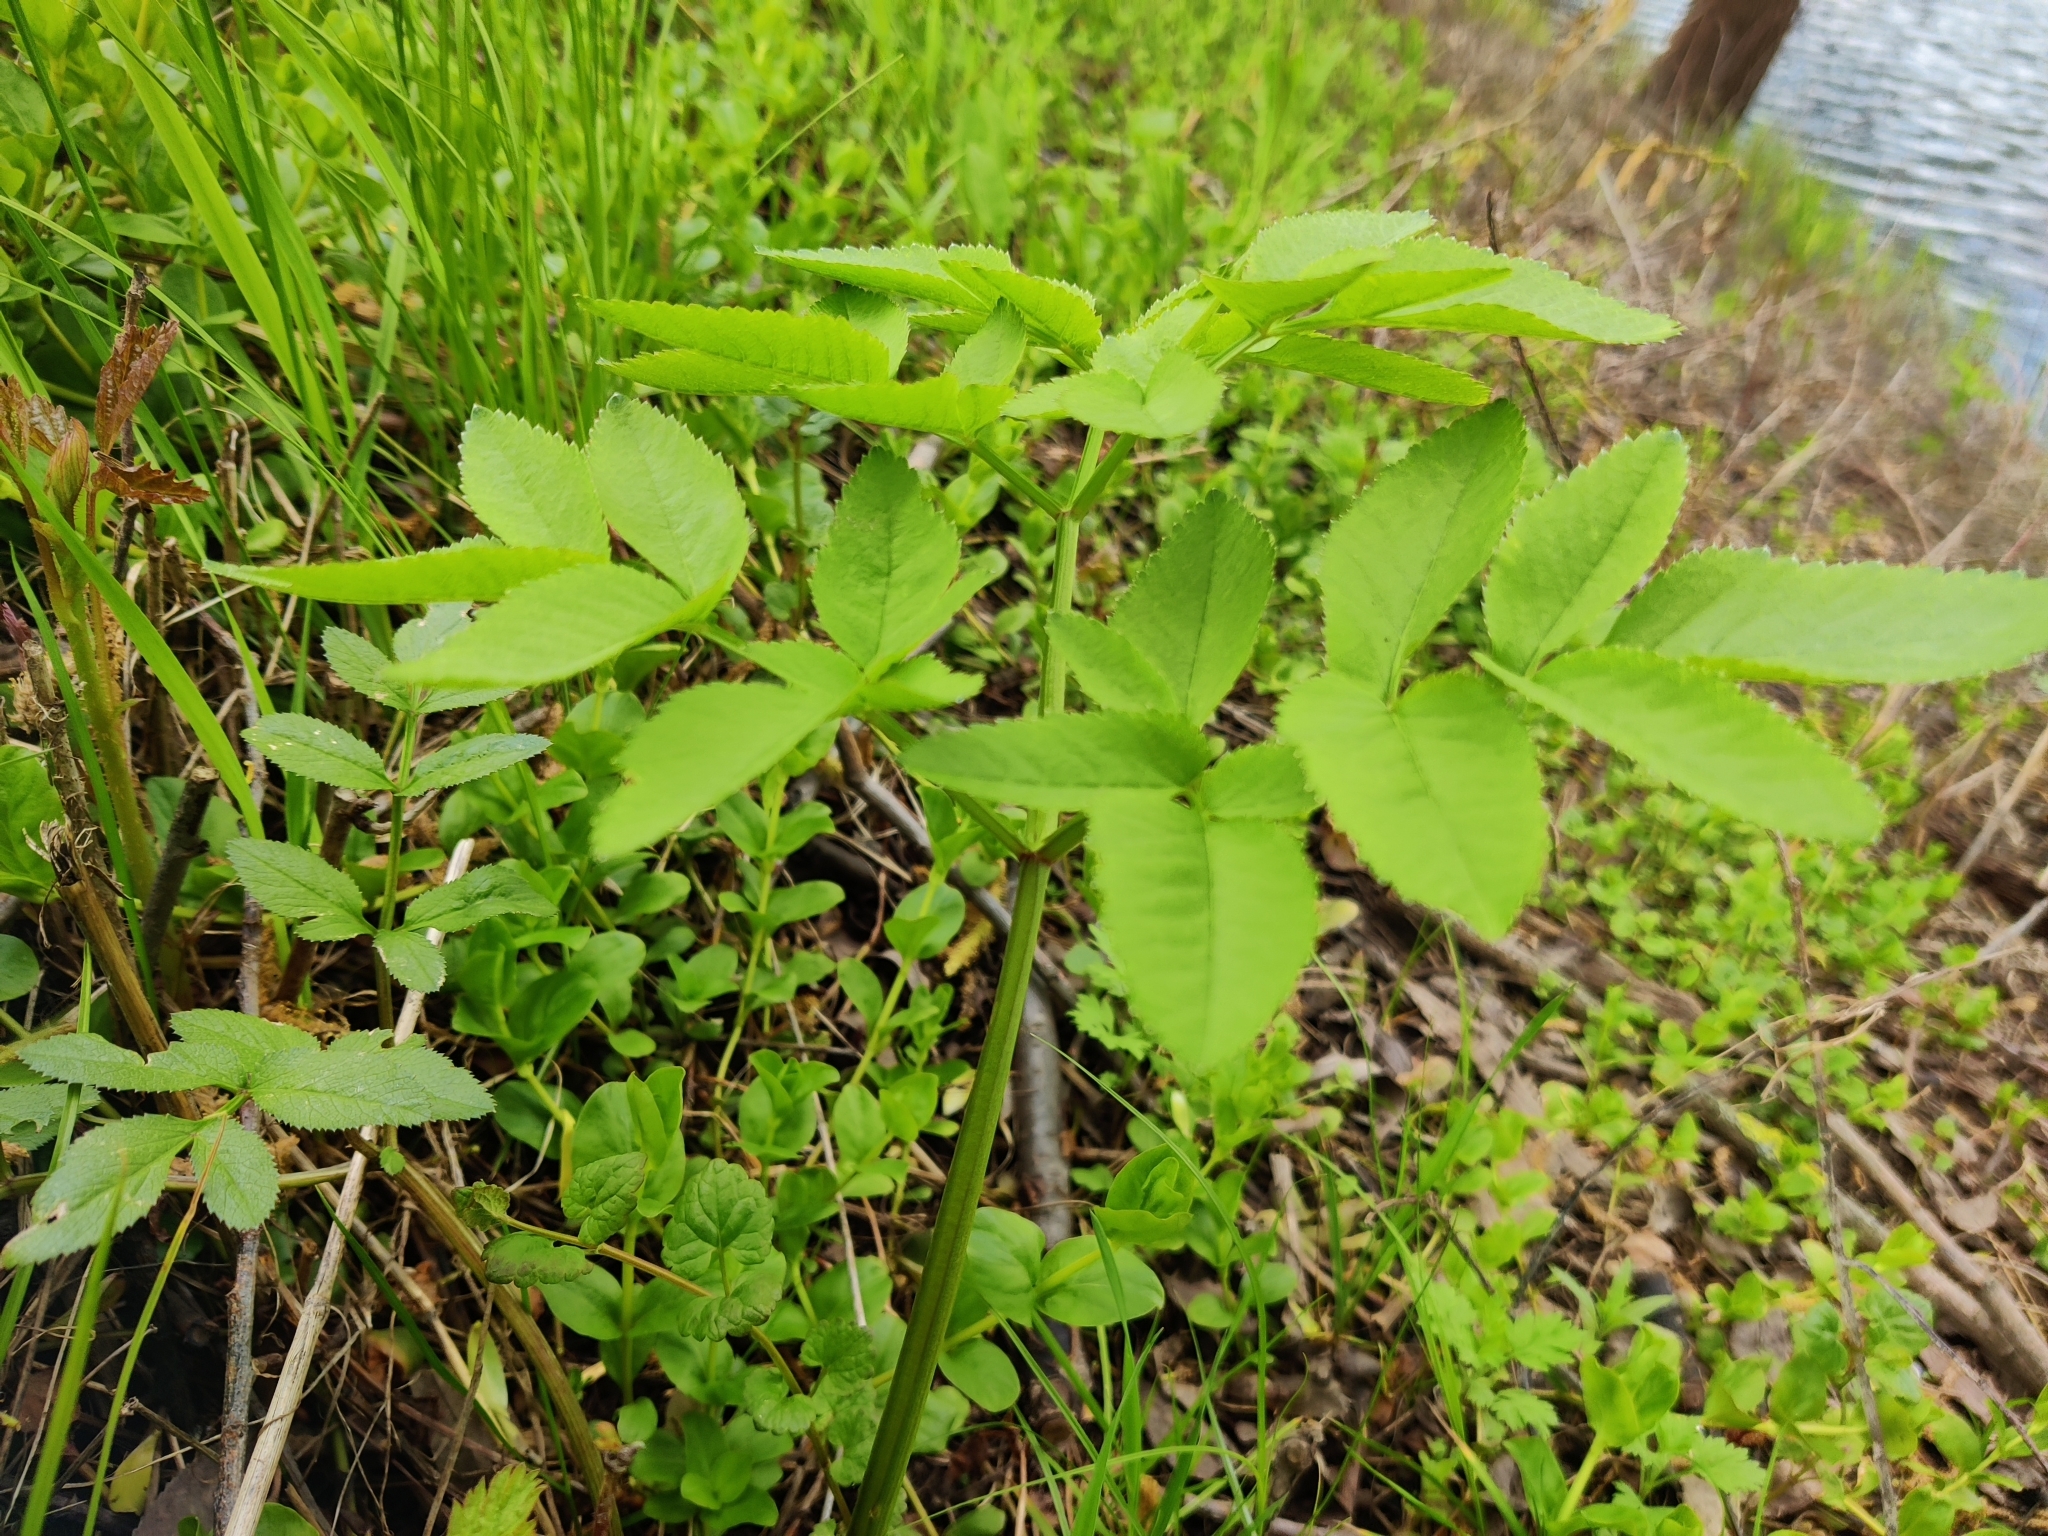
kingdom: Plantae
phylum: Tracheophyta
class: Magnoliopsida
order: Apiales
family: Apiaceae
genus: Angelica
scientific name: Angelica sylvestris
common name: Wild angelica
